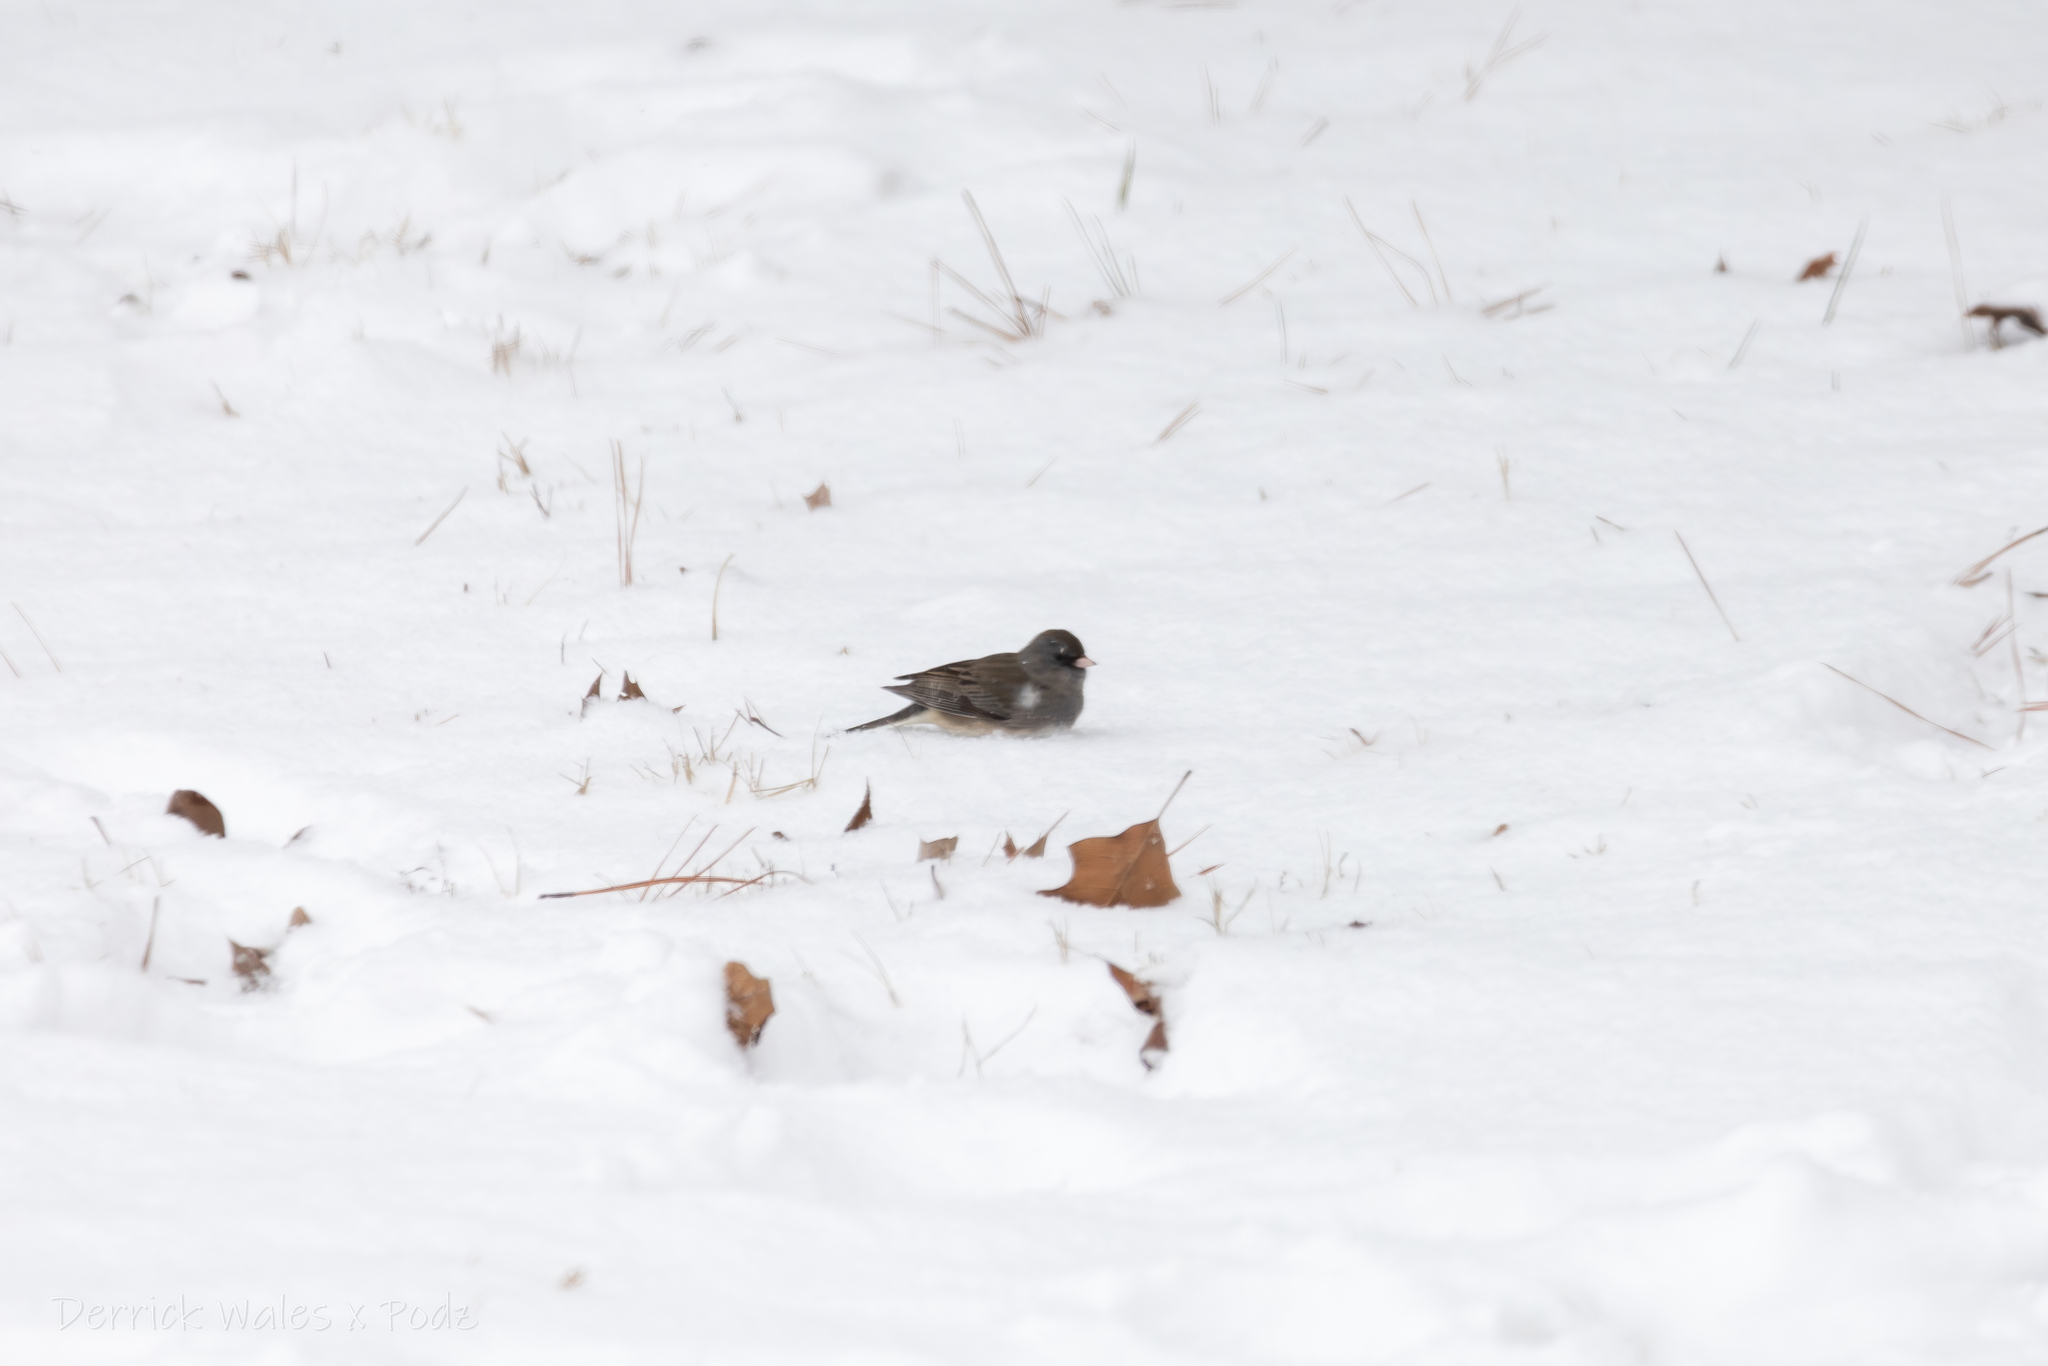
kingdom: Animalia
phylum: Chordata
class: Aves
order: Passeriformes
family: Passerellidae
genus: Junco
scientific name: Junco hyemalis
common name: Dark-eyed junco
